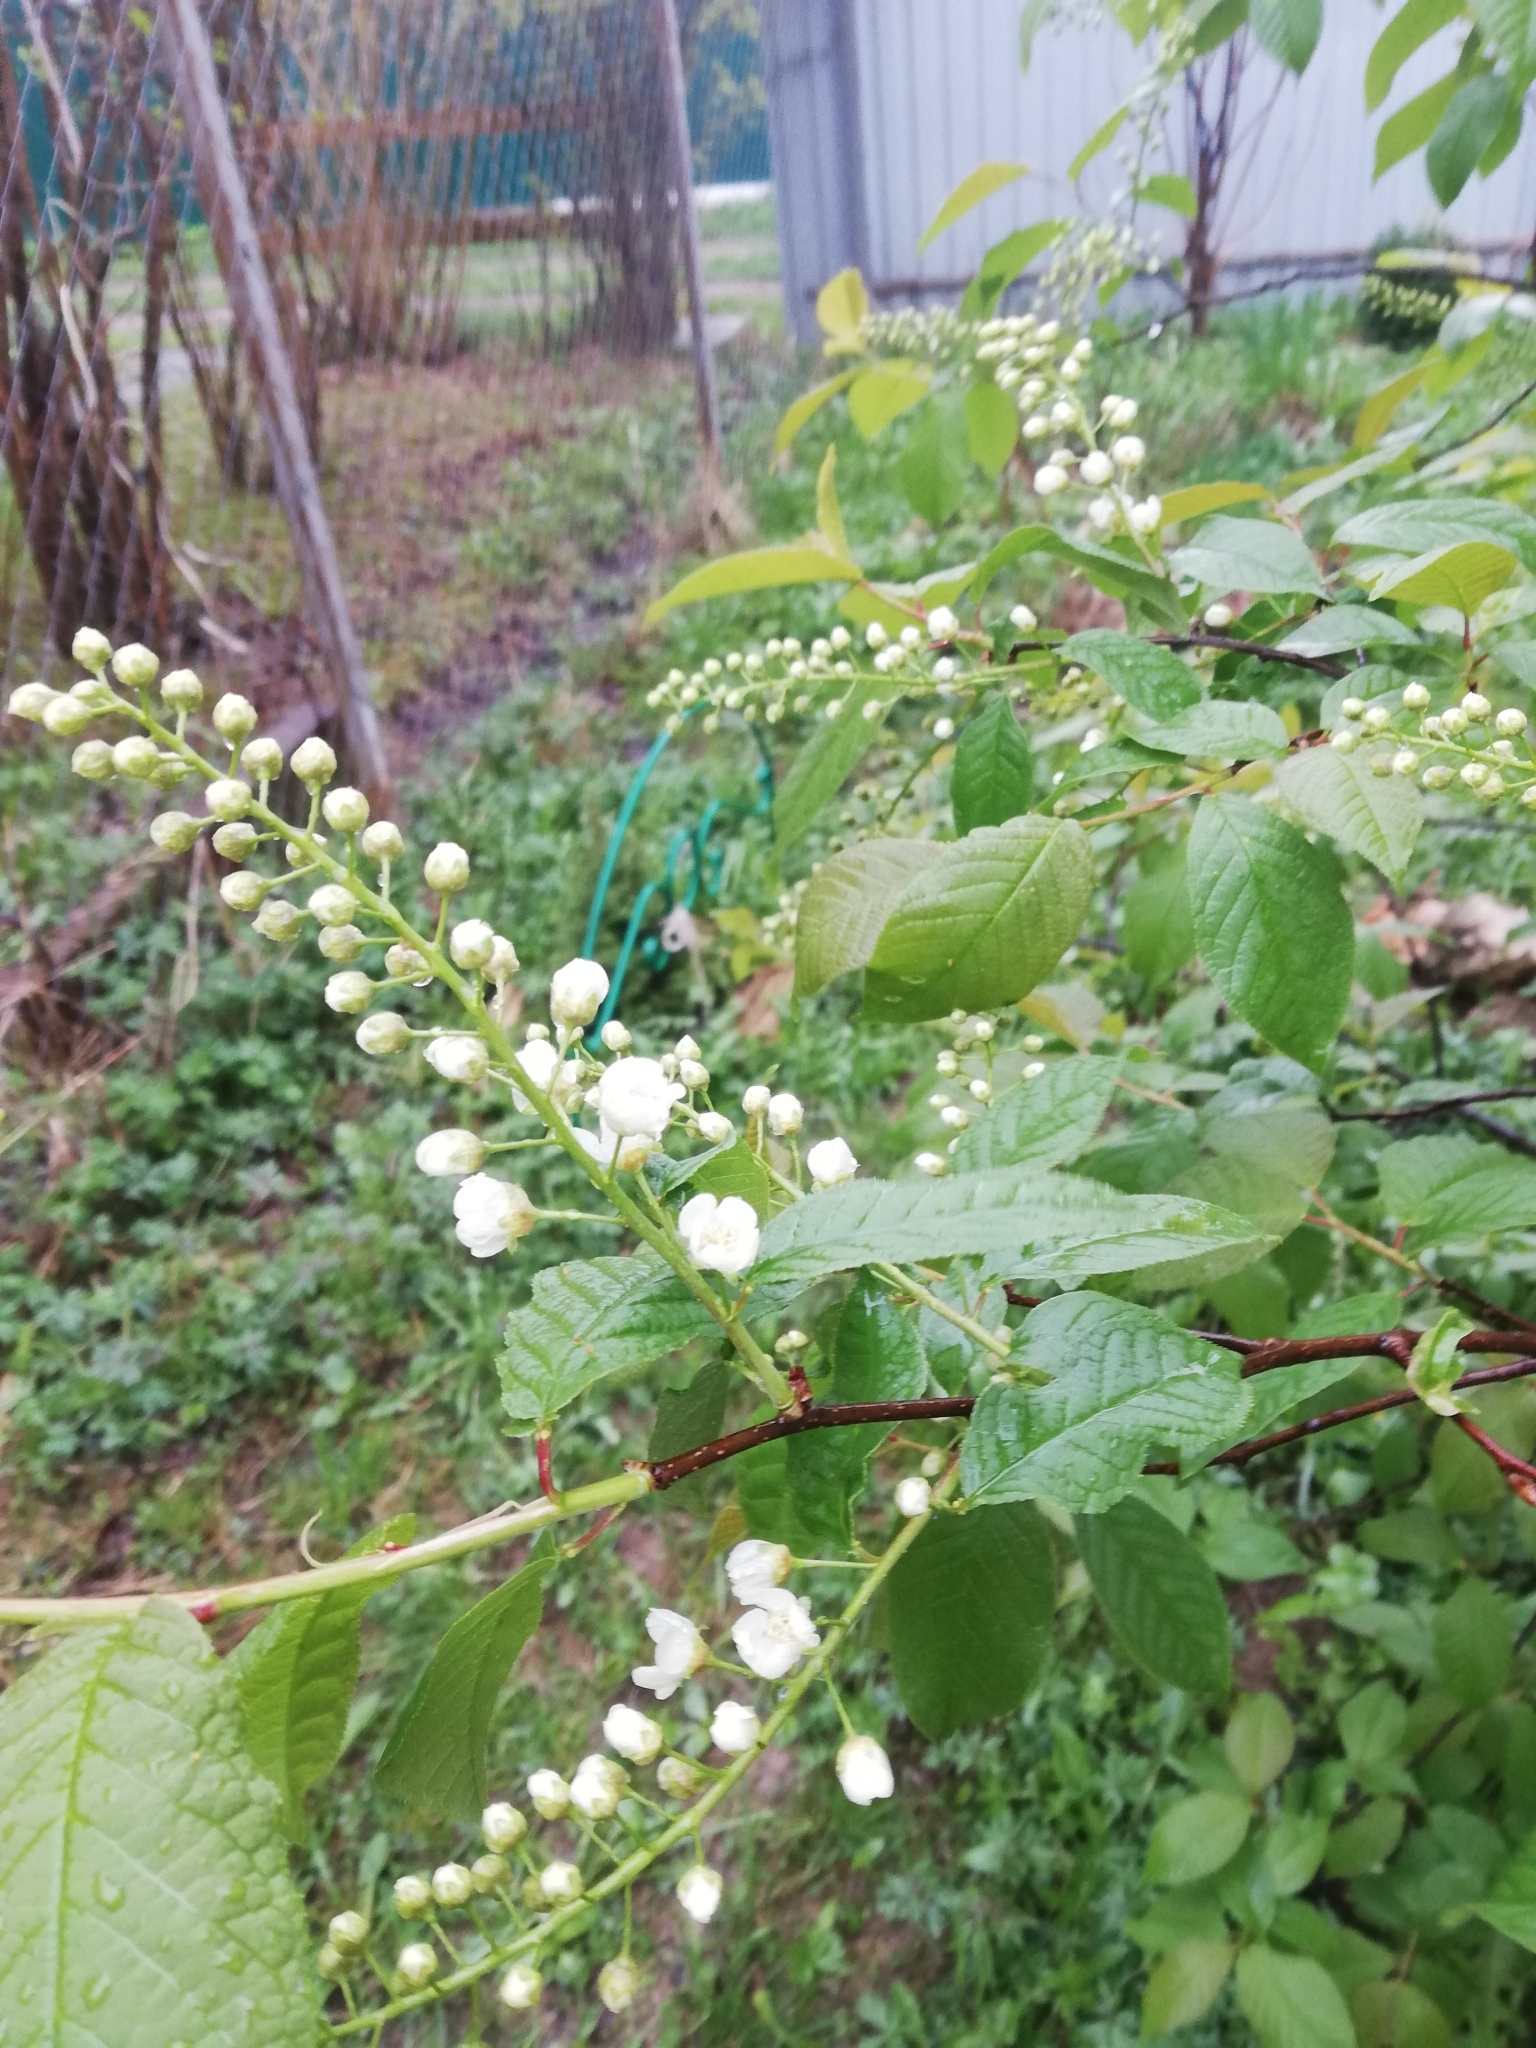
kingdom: Plantae
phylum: Tracheophyta
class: Magnoliopsida
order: Rosales
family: Rosaceae
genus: Prunus
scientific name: Prunus padus
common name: Bird cherry
